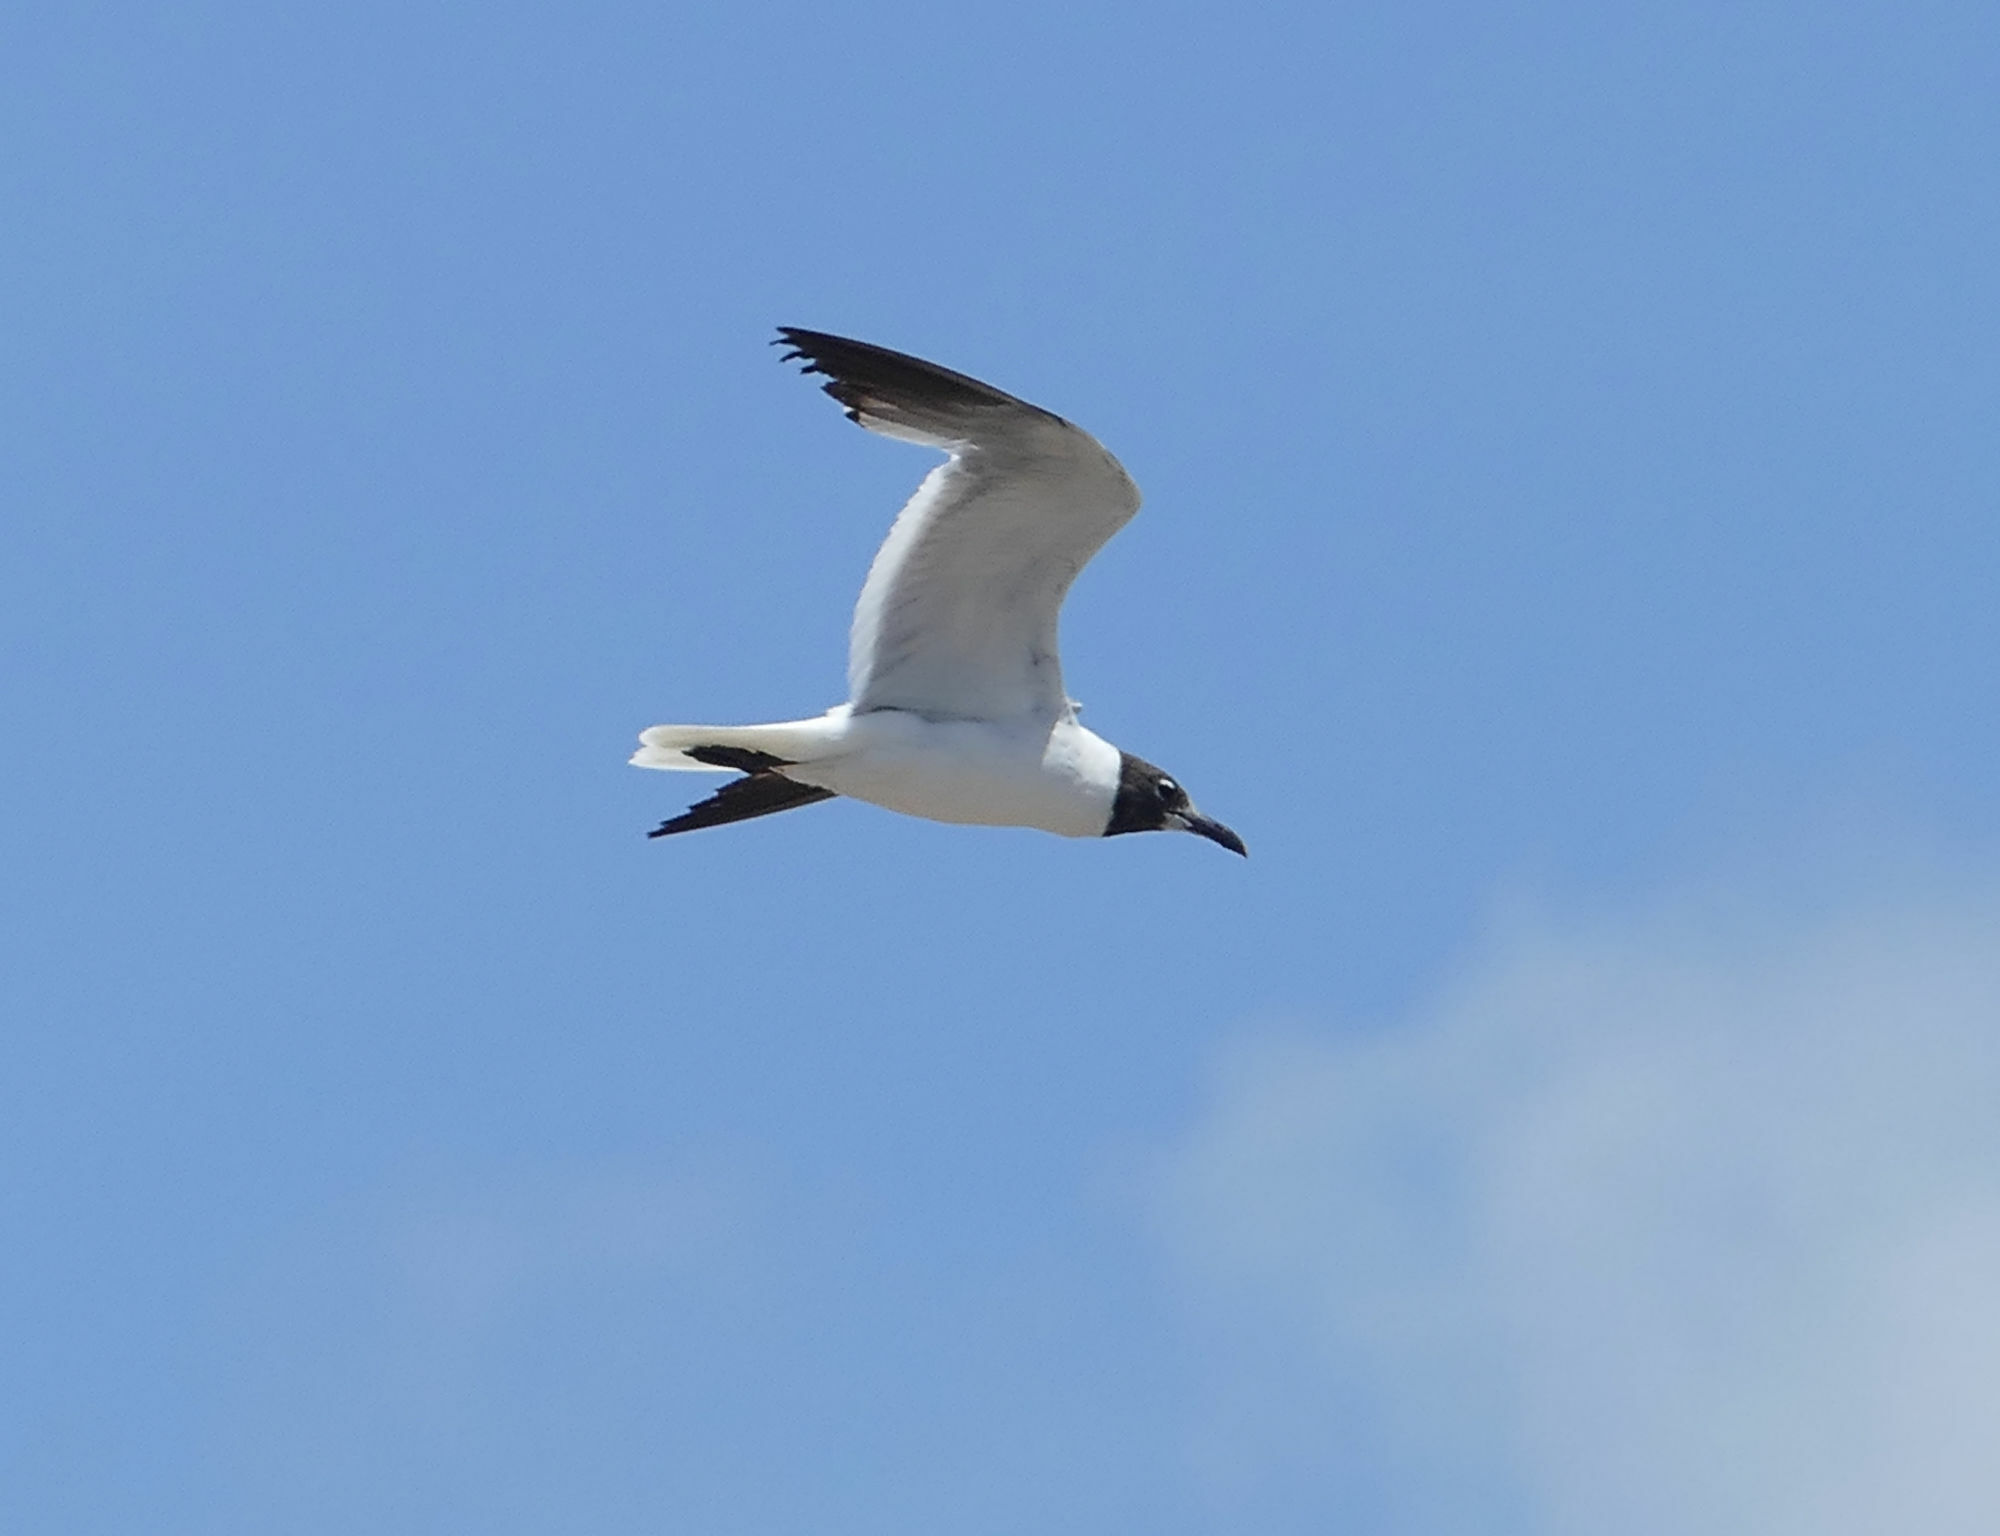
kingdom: Animalia
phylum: Chordata
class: Aves
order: Charadriiformes
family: Laridae
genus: Leucophaeus
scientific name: Leucophaeus atricilla
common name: Laughing gull
